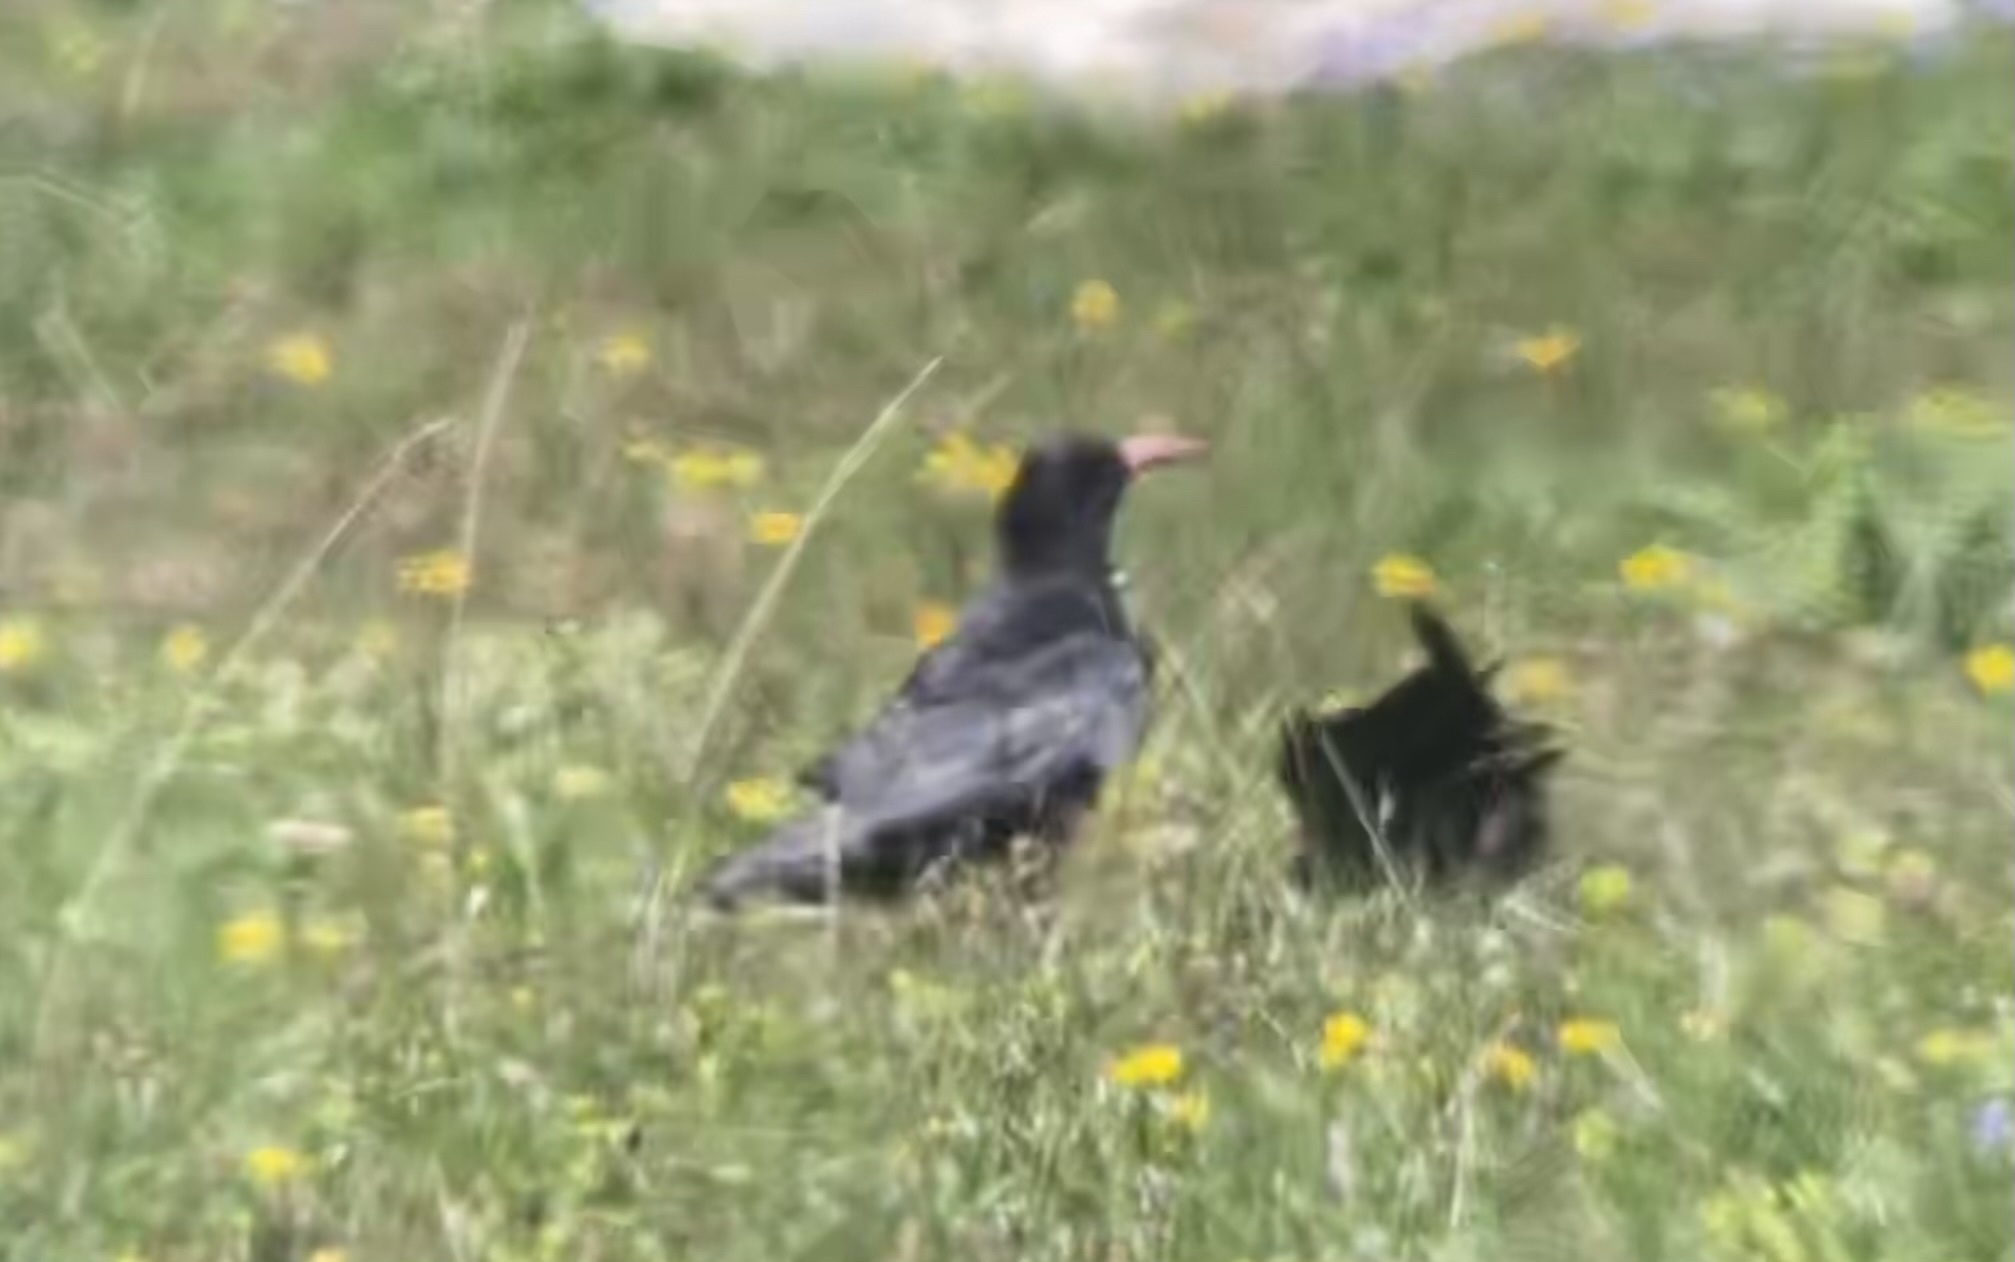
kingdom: Animalia
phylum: Chordata
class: Aves
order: Passeriformes
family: Corvidae
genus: Pyrrhocorax
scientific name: Pyrrhocorax pyrrhocorax
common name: Red-billed chough
